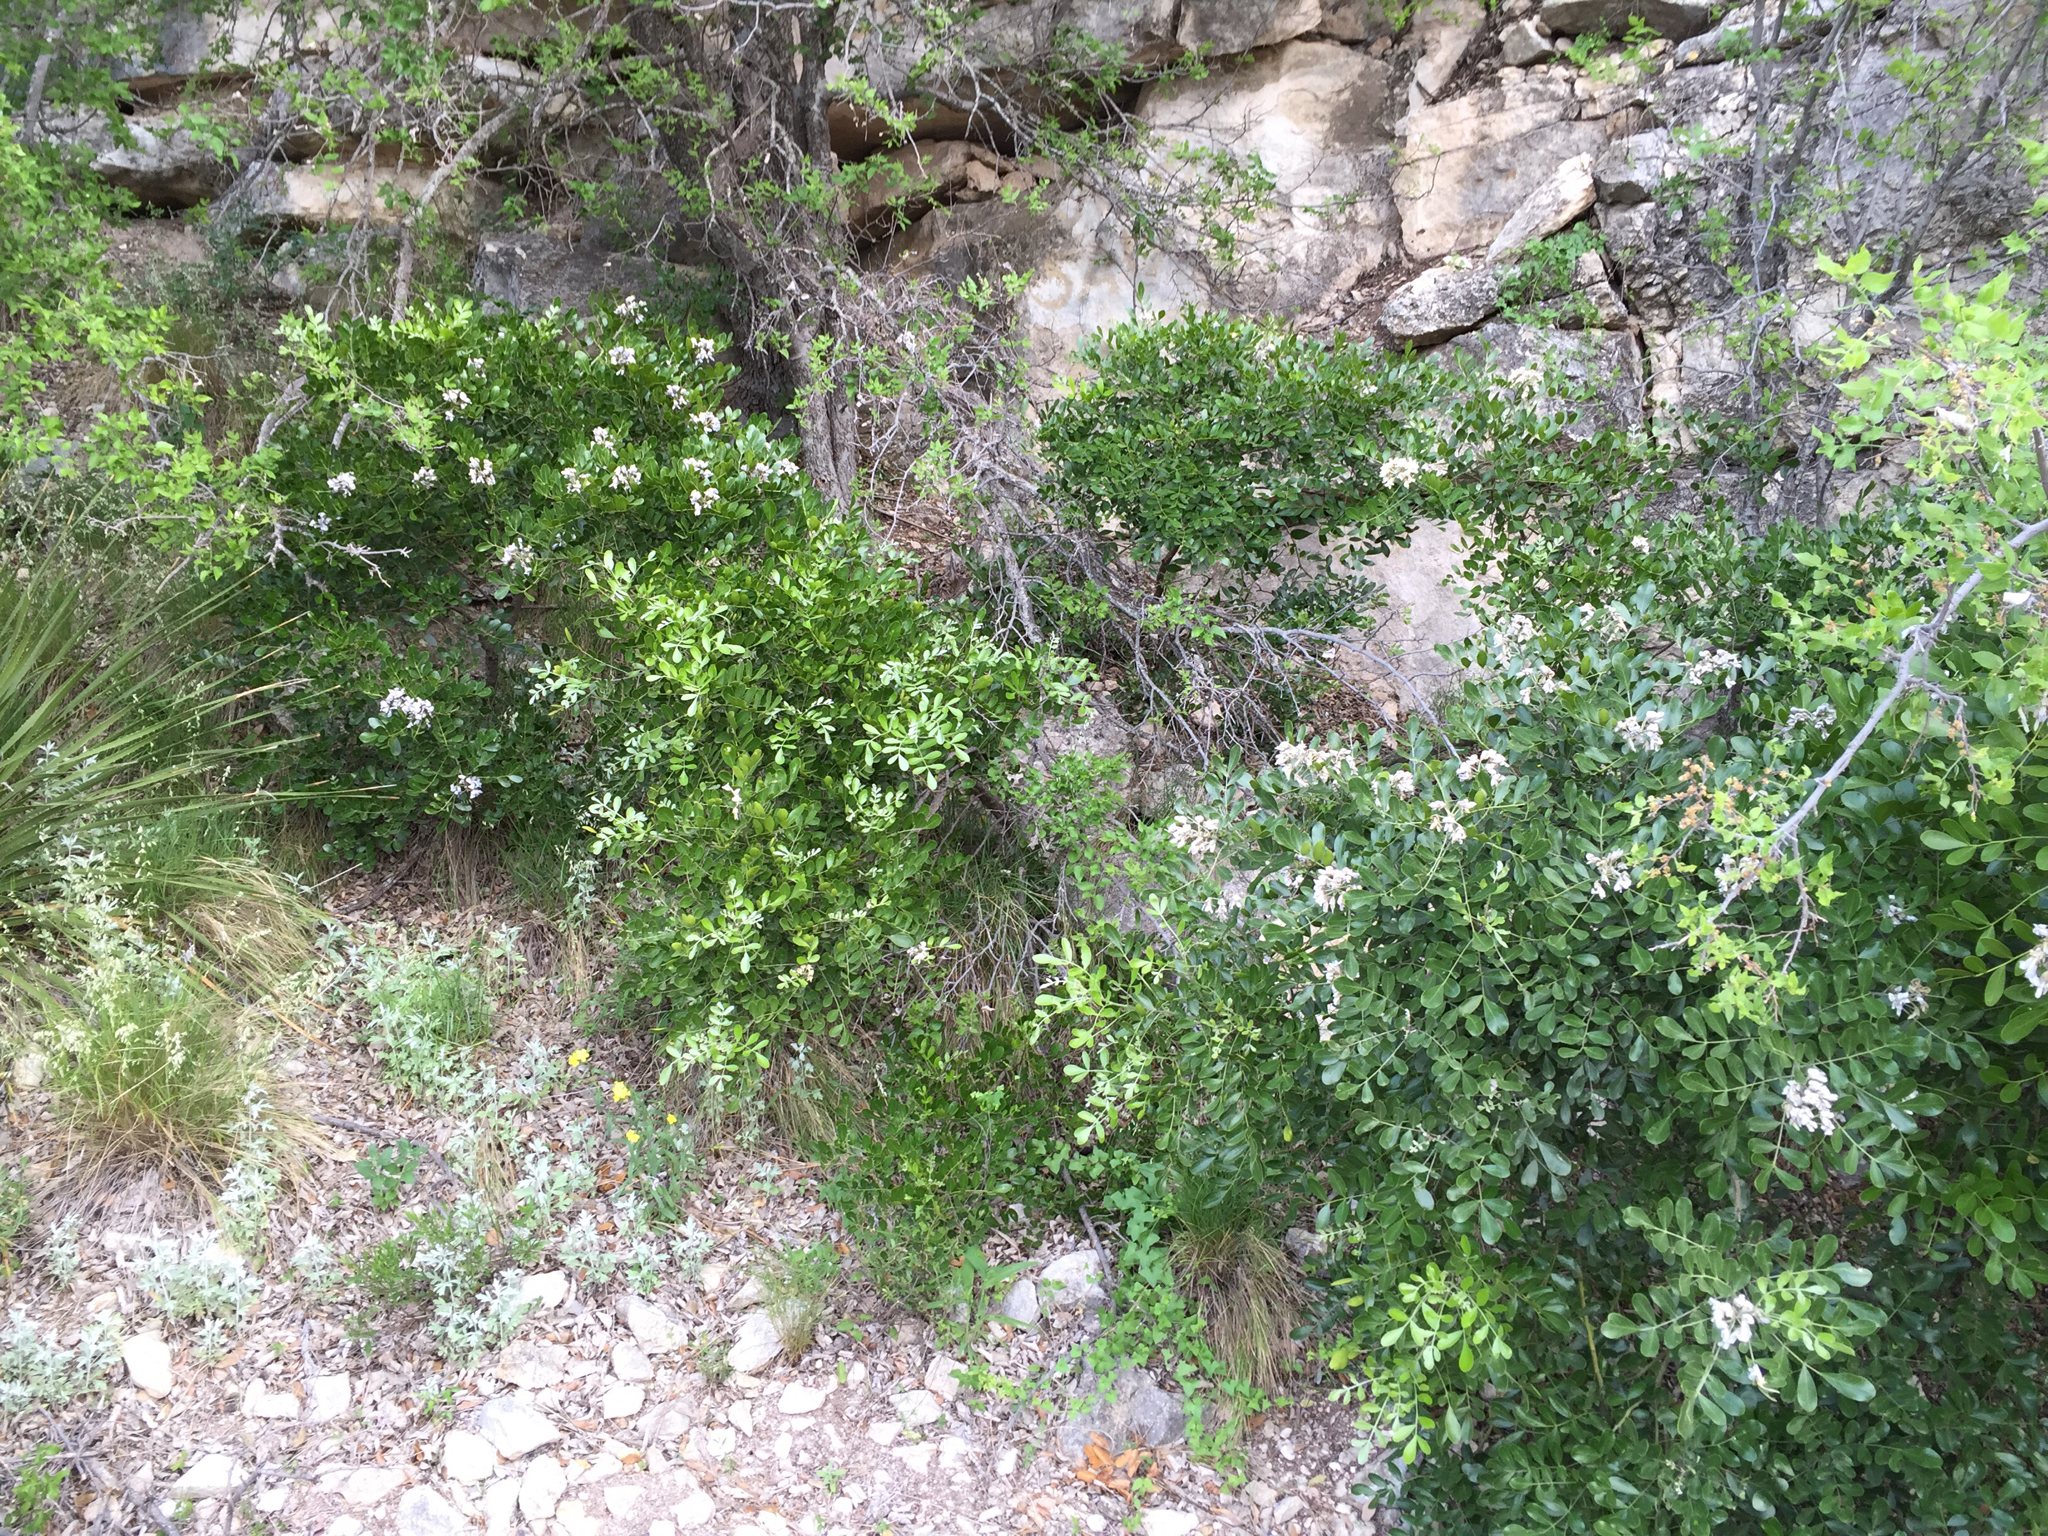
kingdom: Plantae
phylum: Tracheophyta
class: Magnoliopsida
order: Fabales
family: Fabaceae
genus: Dermatophyllum
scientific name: Dermatophyllum secundiflorum
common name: Texas-mountain-laurel
